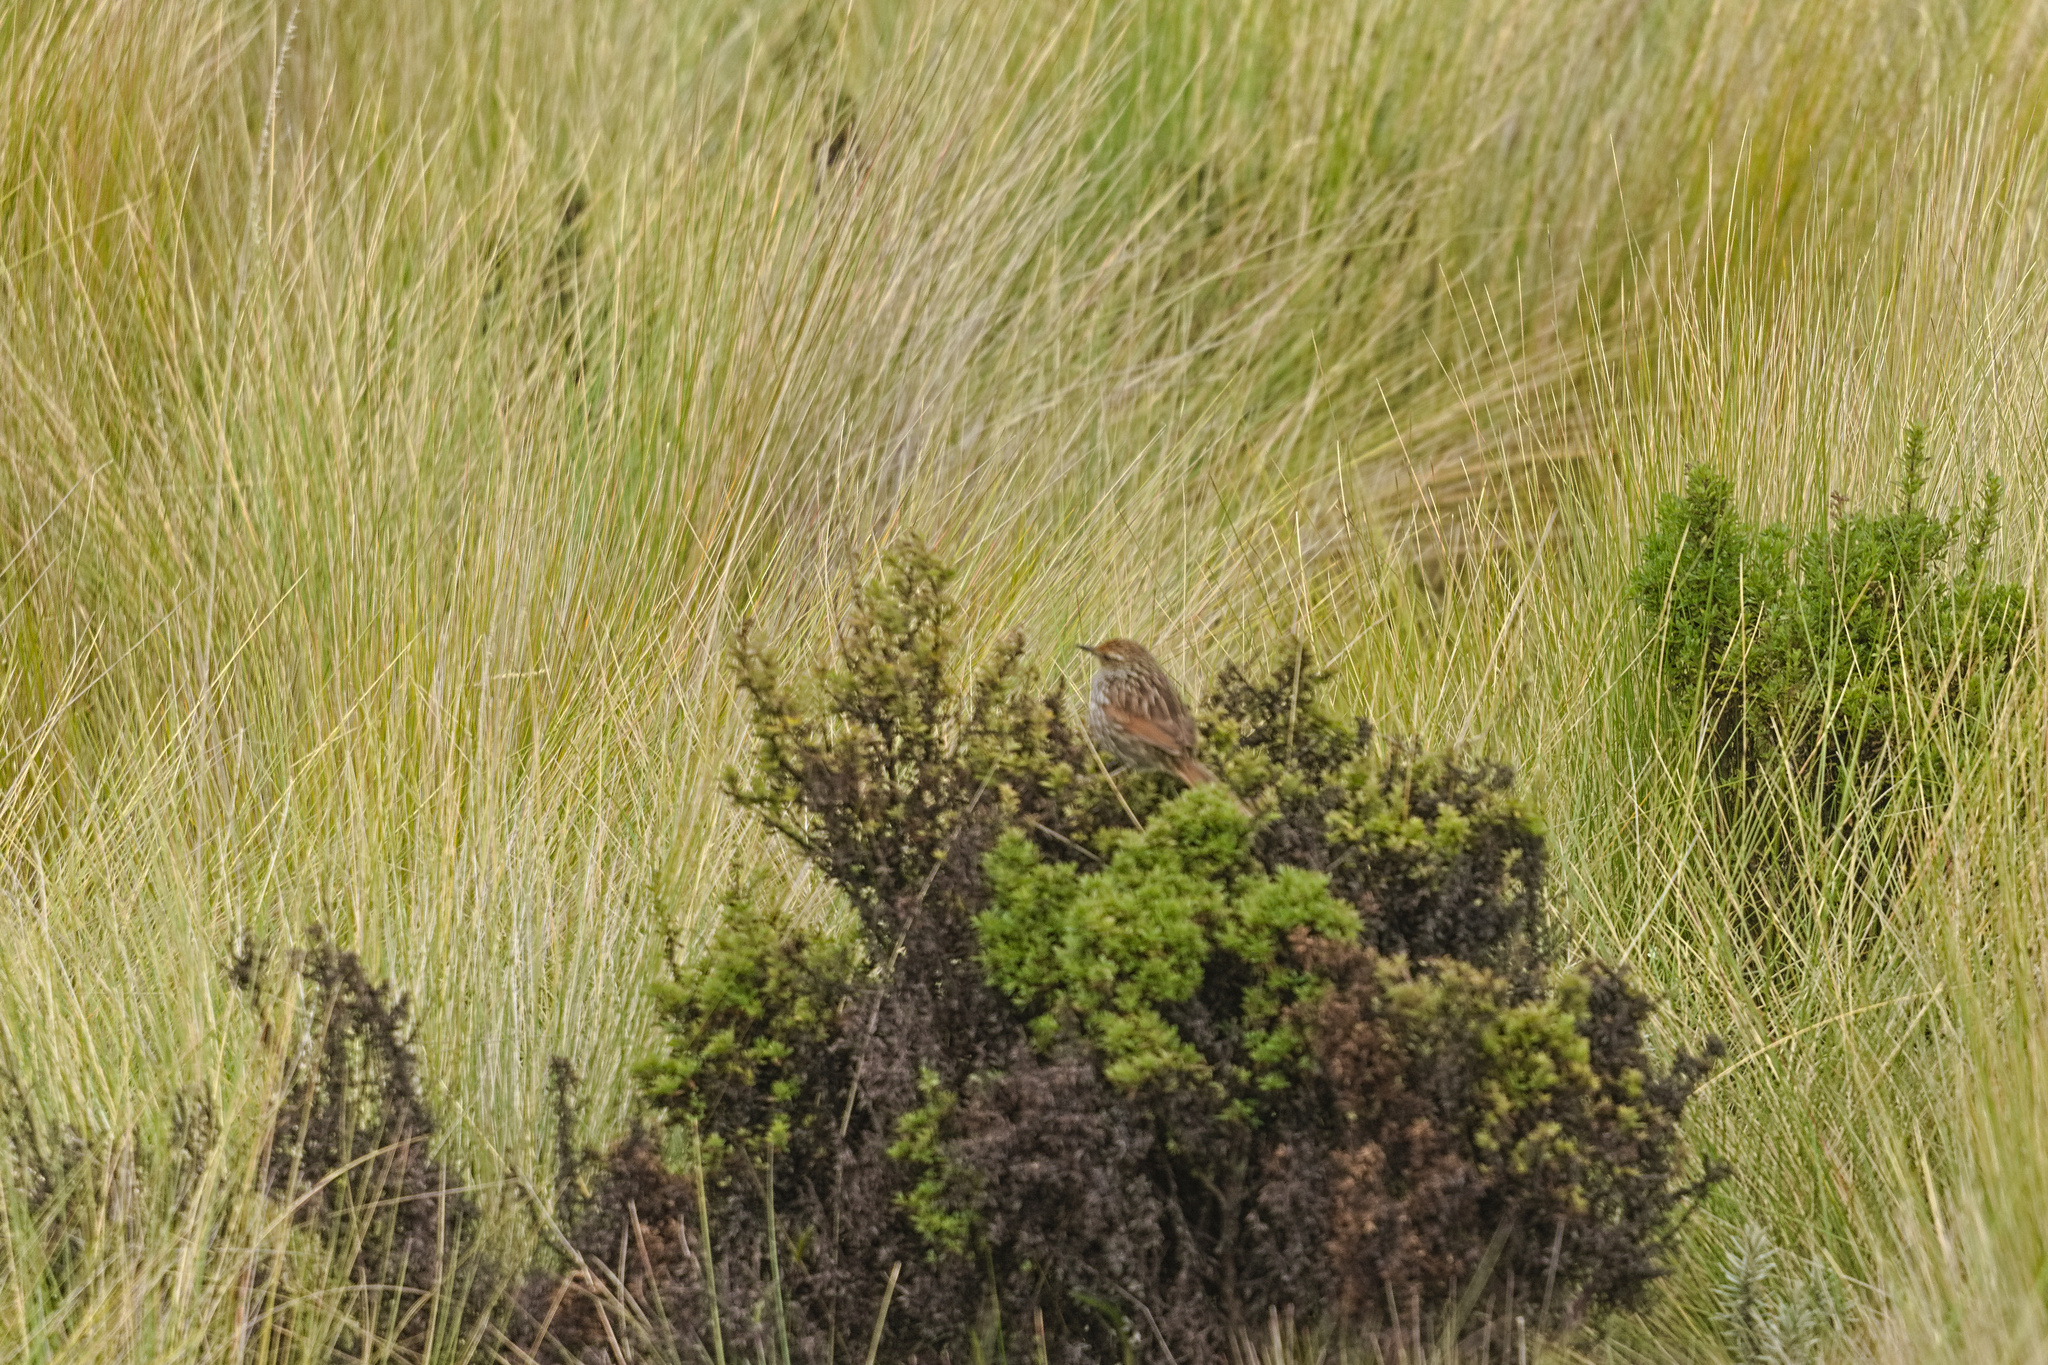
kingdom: Animalia
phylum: Chordata
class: Aves
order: Passeriformes
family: Furnariidae
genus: Asthenes
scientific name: Asthenes flammulata
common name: Many-striped canastero
